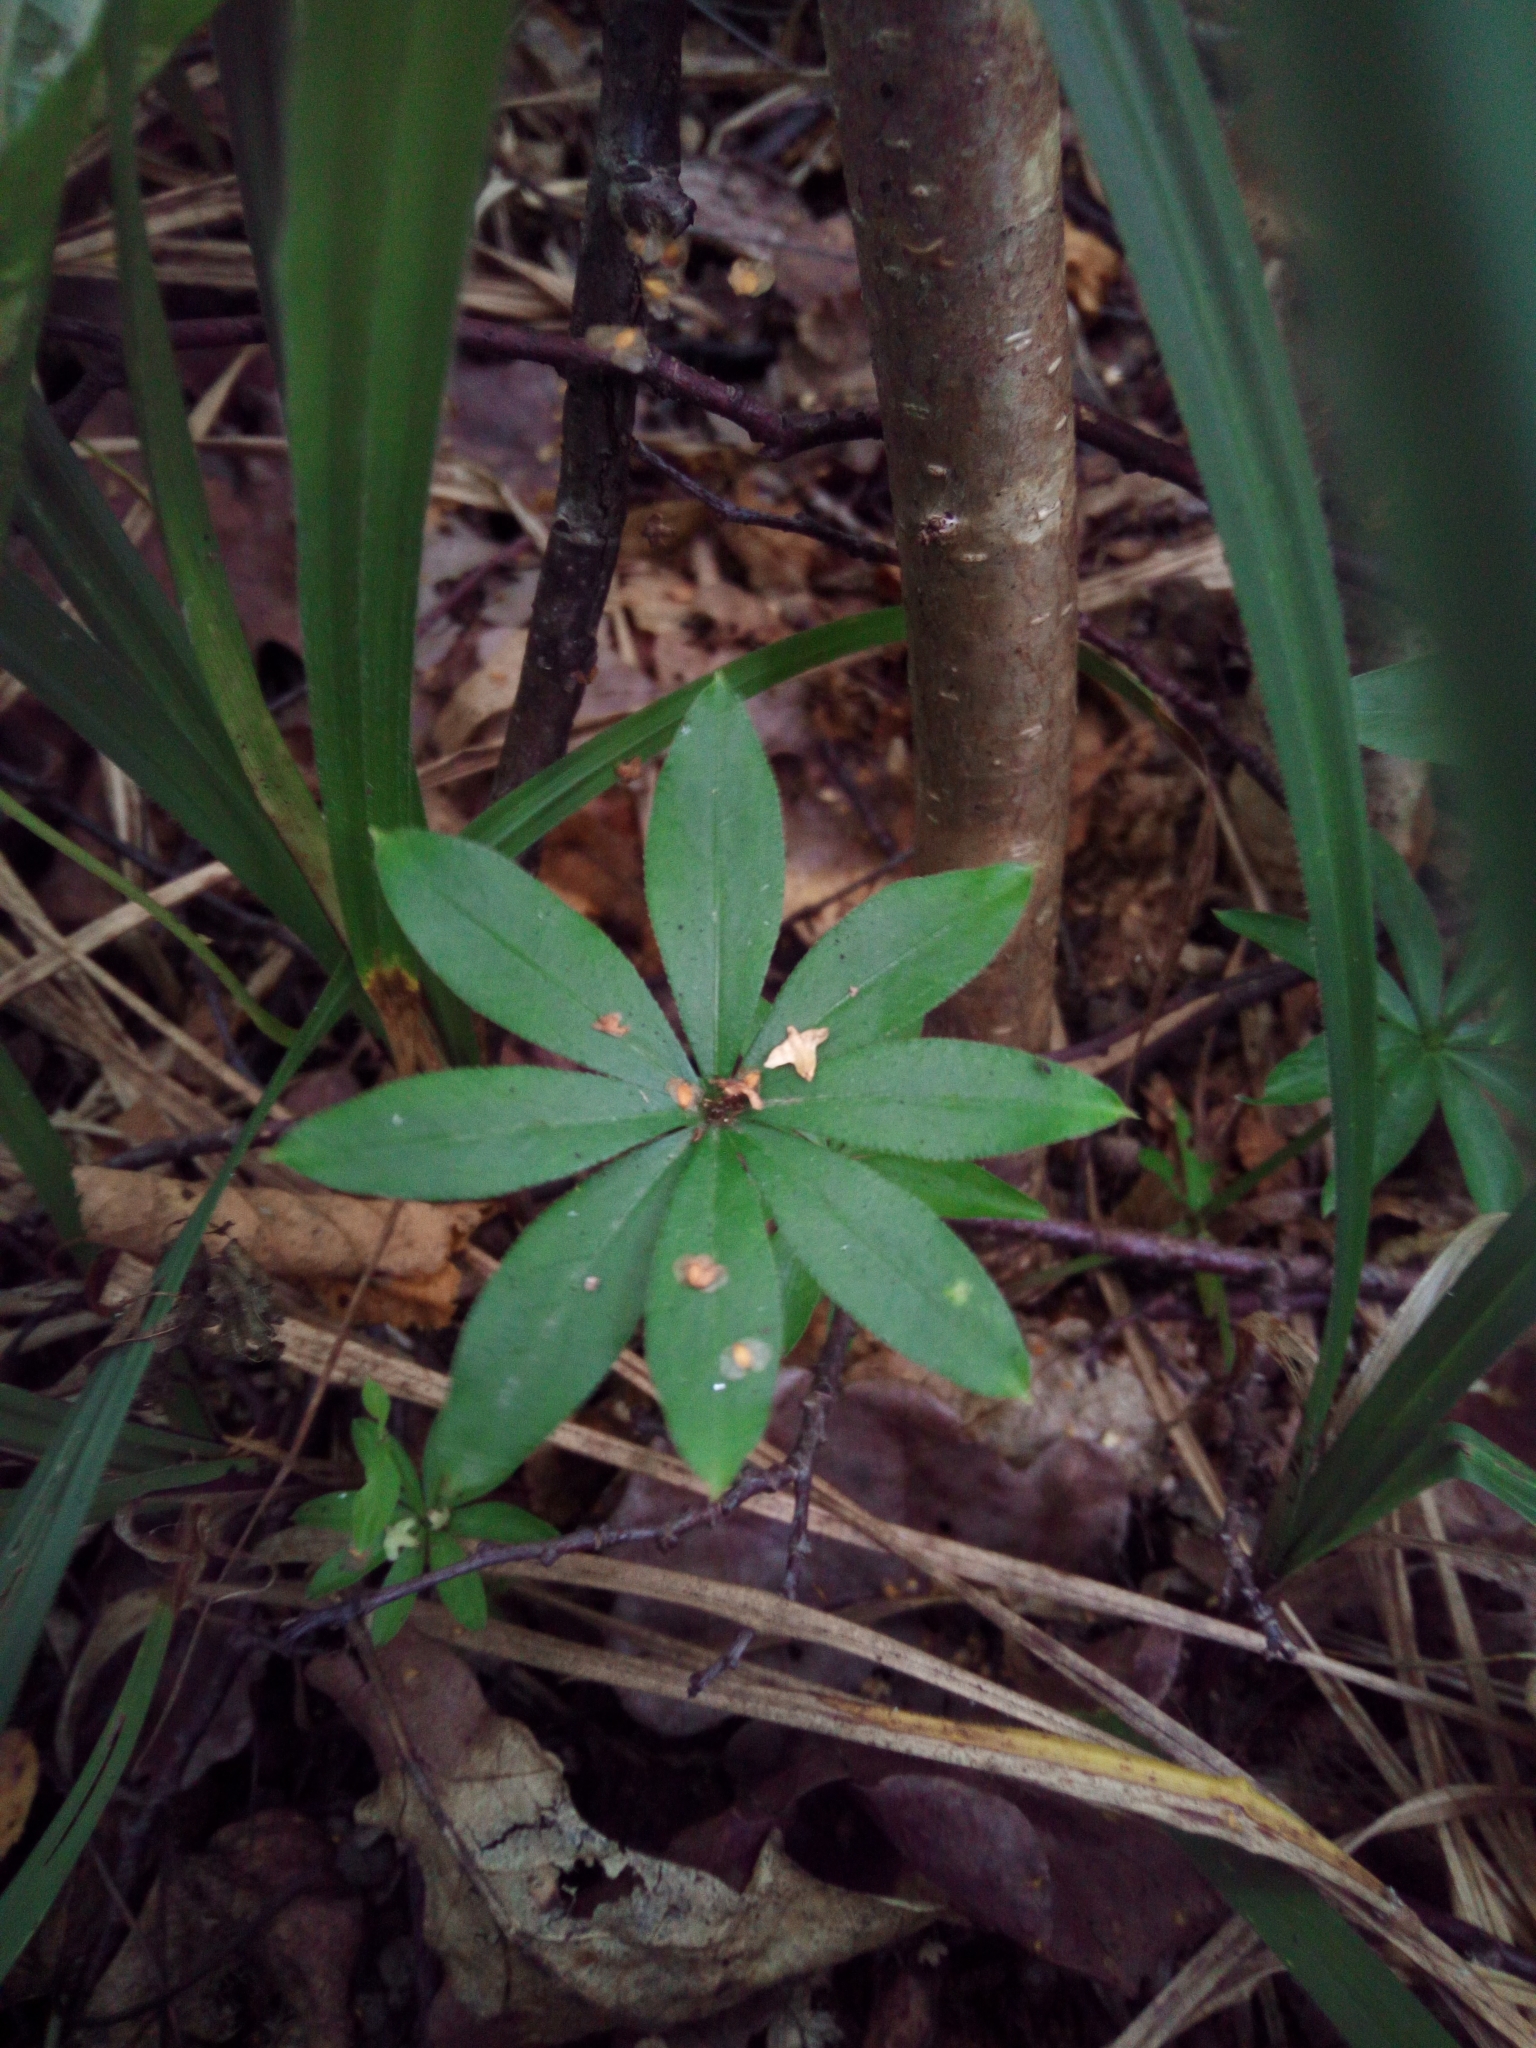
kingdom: Plantae
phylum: Tracheophyta
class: Magnoliopsida
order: Gentianales
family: Rubiaceae
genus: Galium
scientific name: Galium odoratum
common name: Sweet woodruff
